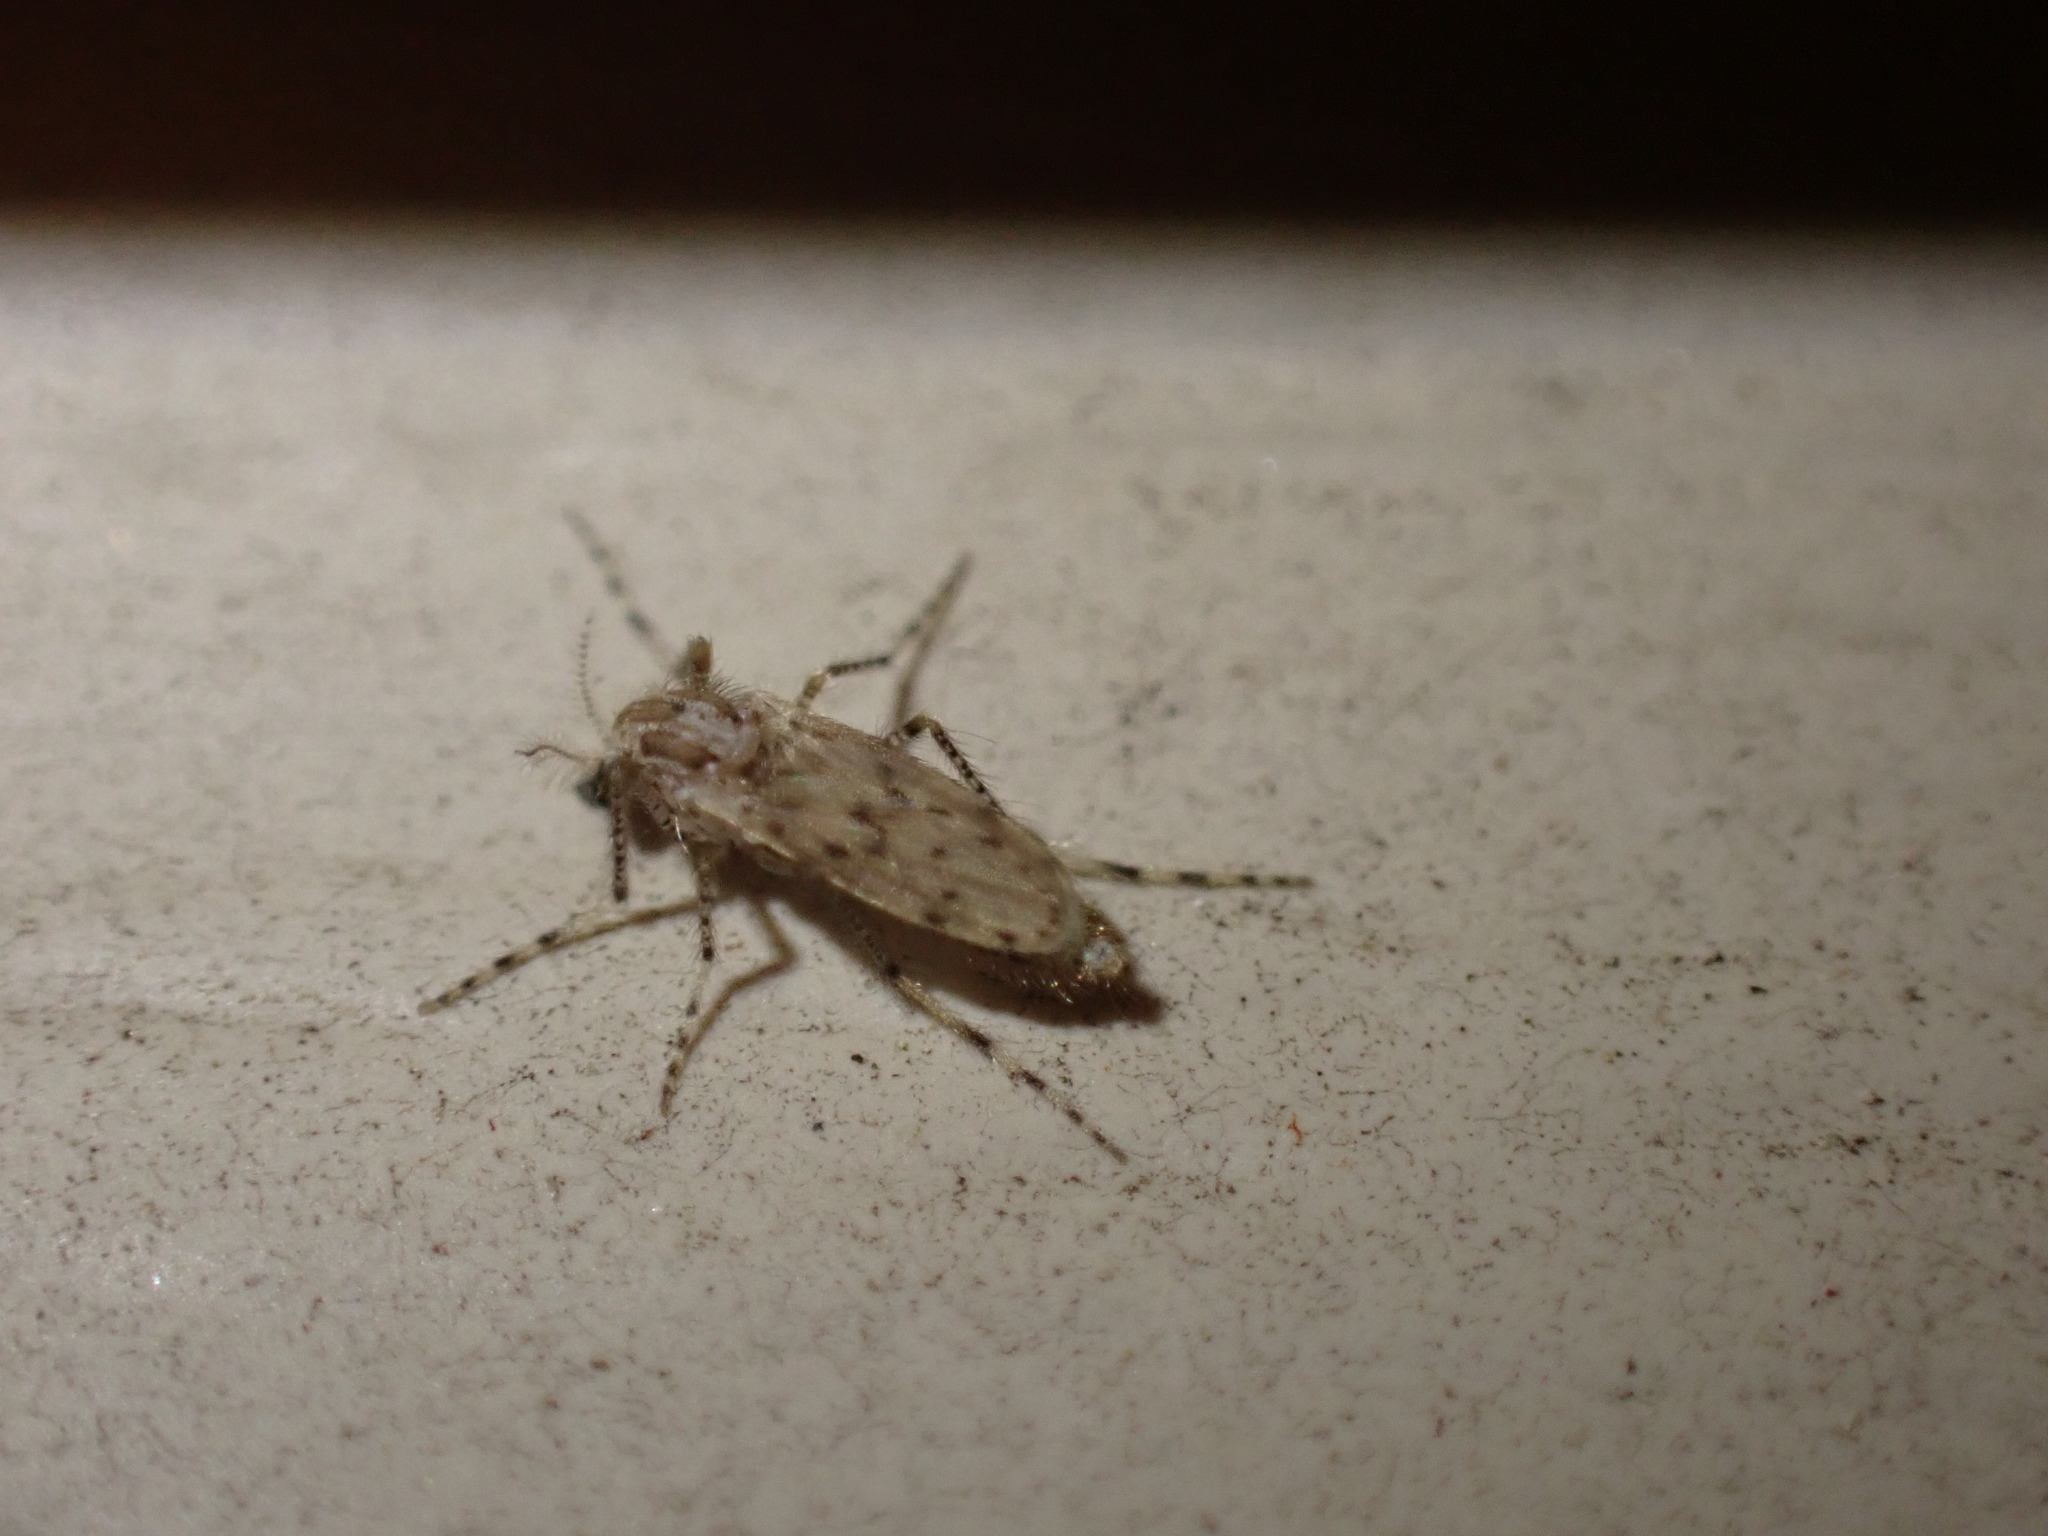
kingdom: Animalia
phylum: Arthropoda
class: Insecta
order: Diptera
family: Chaoboridae
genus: Chaoborus
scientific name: Chaoborus punctipennis
